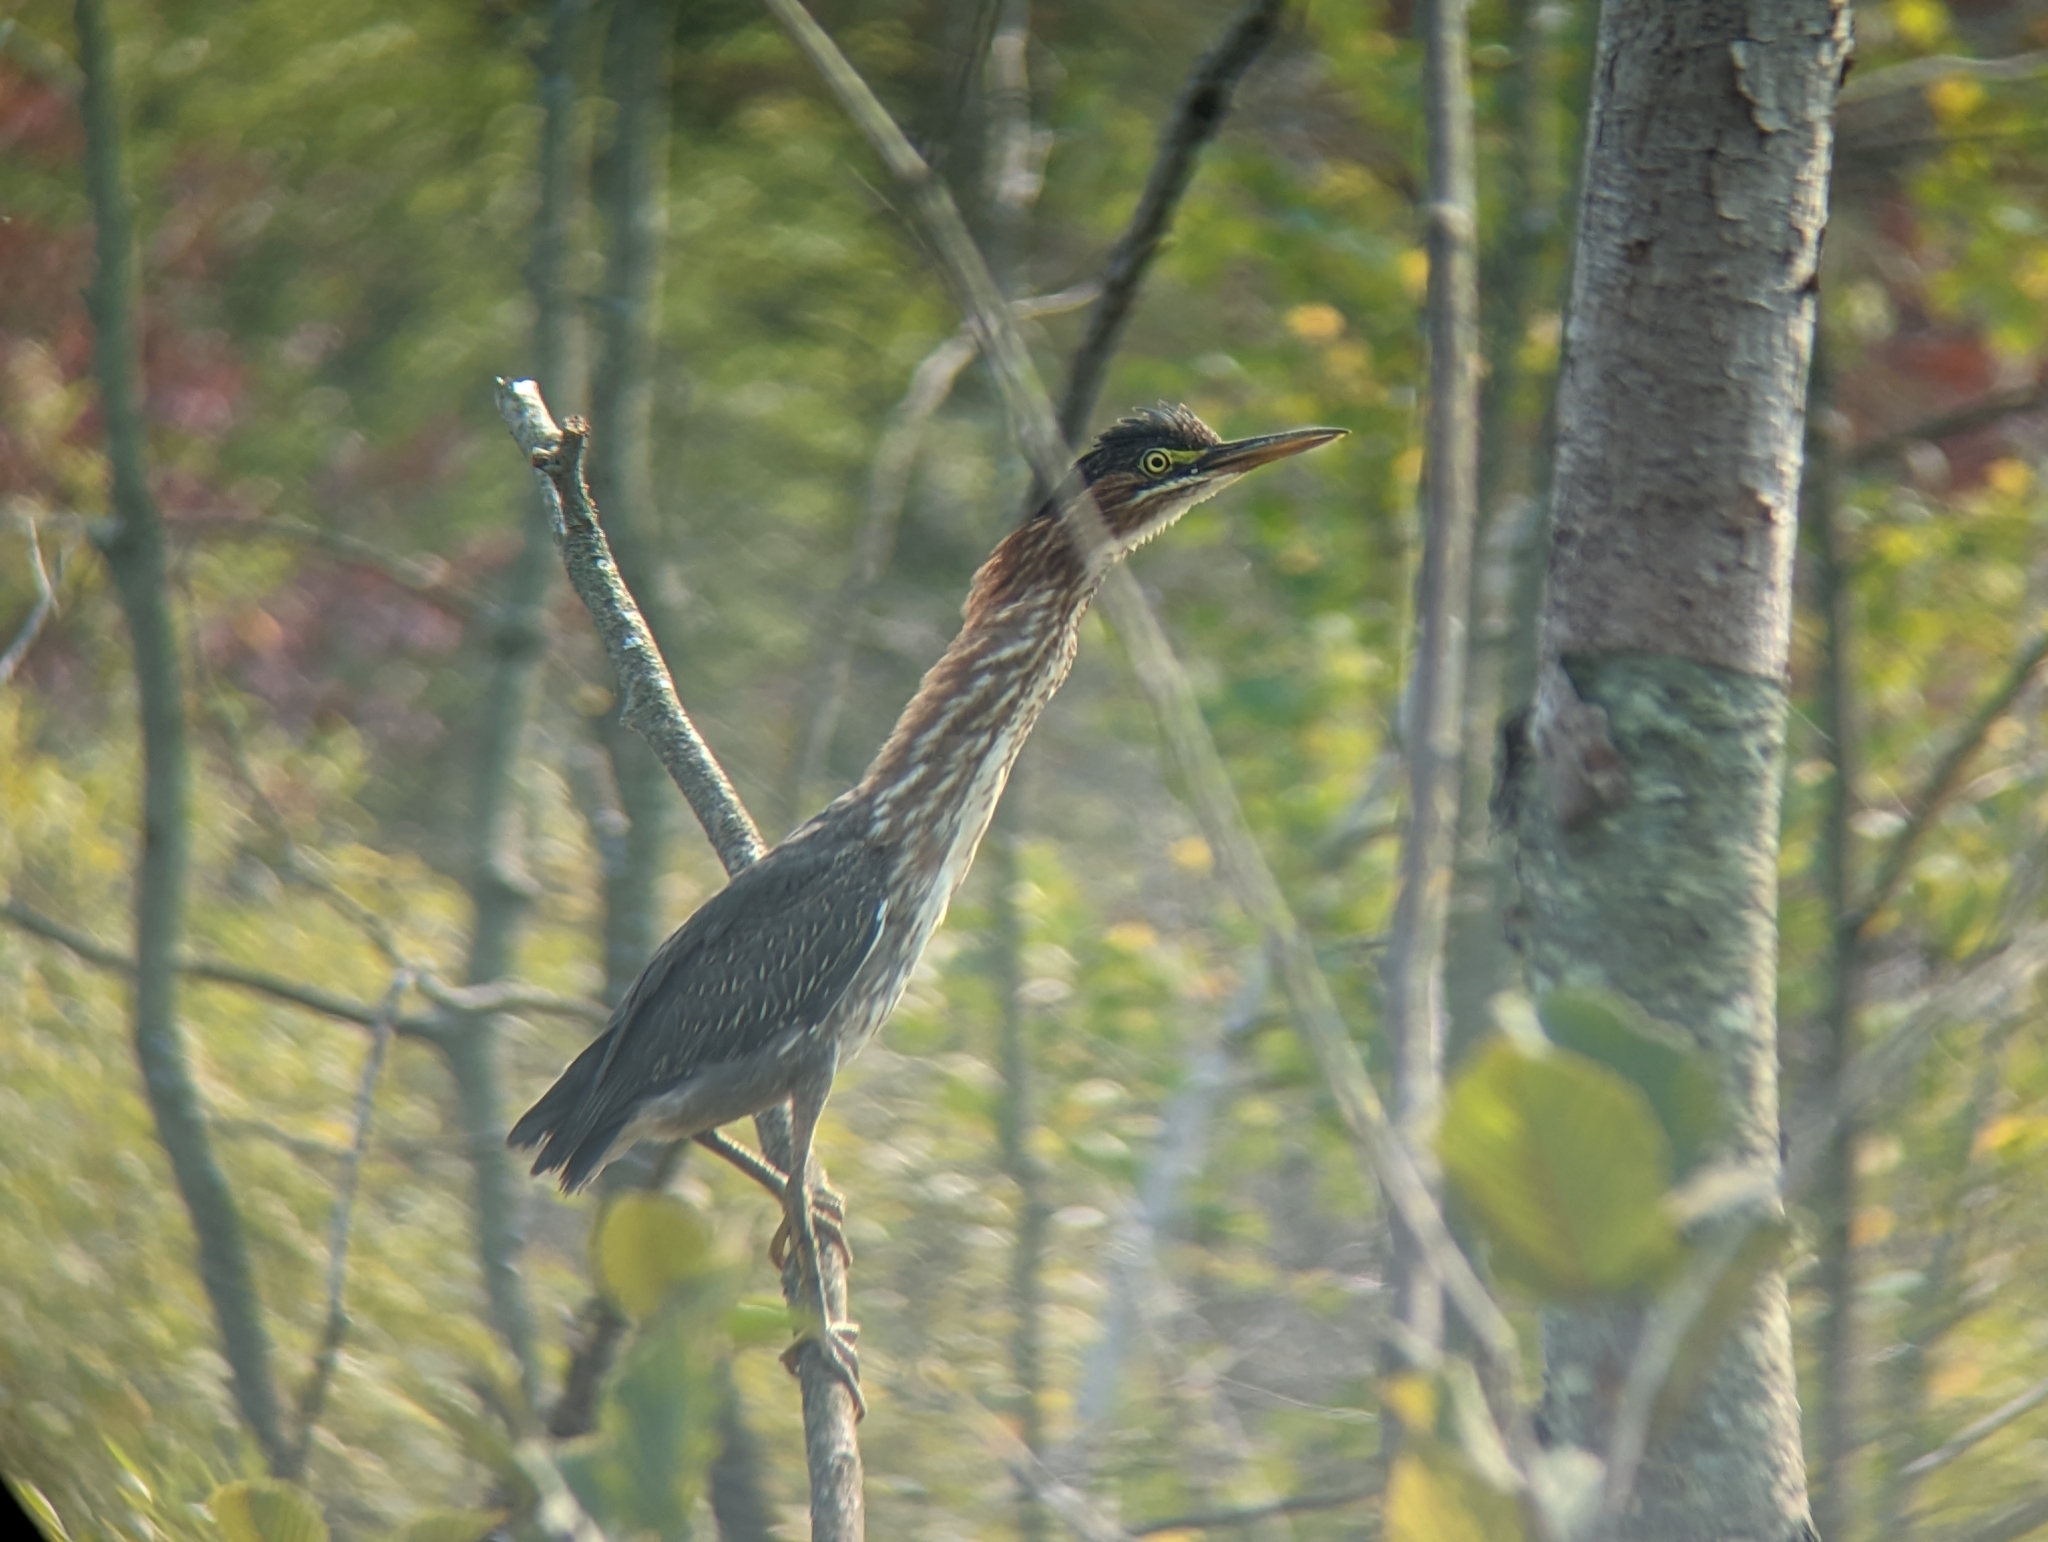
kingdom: Animalia
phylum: Chordata
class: Aves
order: Pelecaniformes
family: Ardeidae
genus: Butorides
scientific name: Butorides virescens
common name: Green heron
